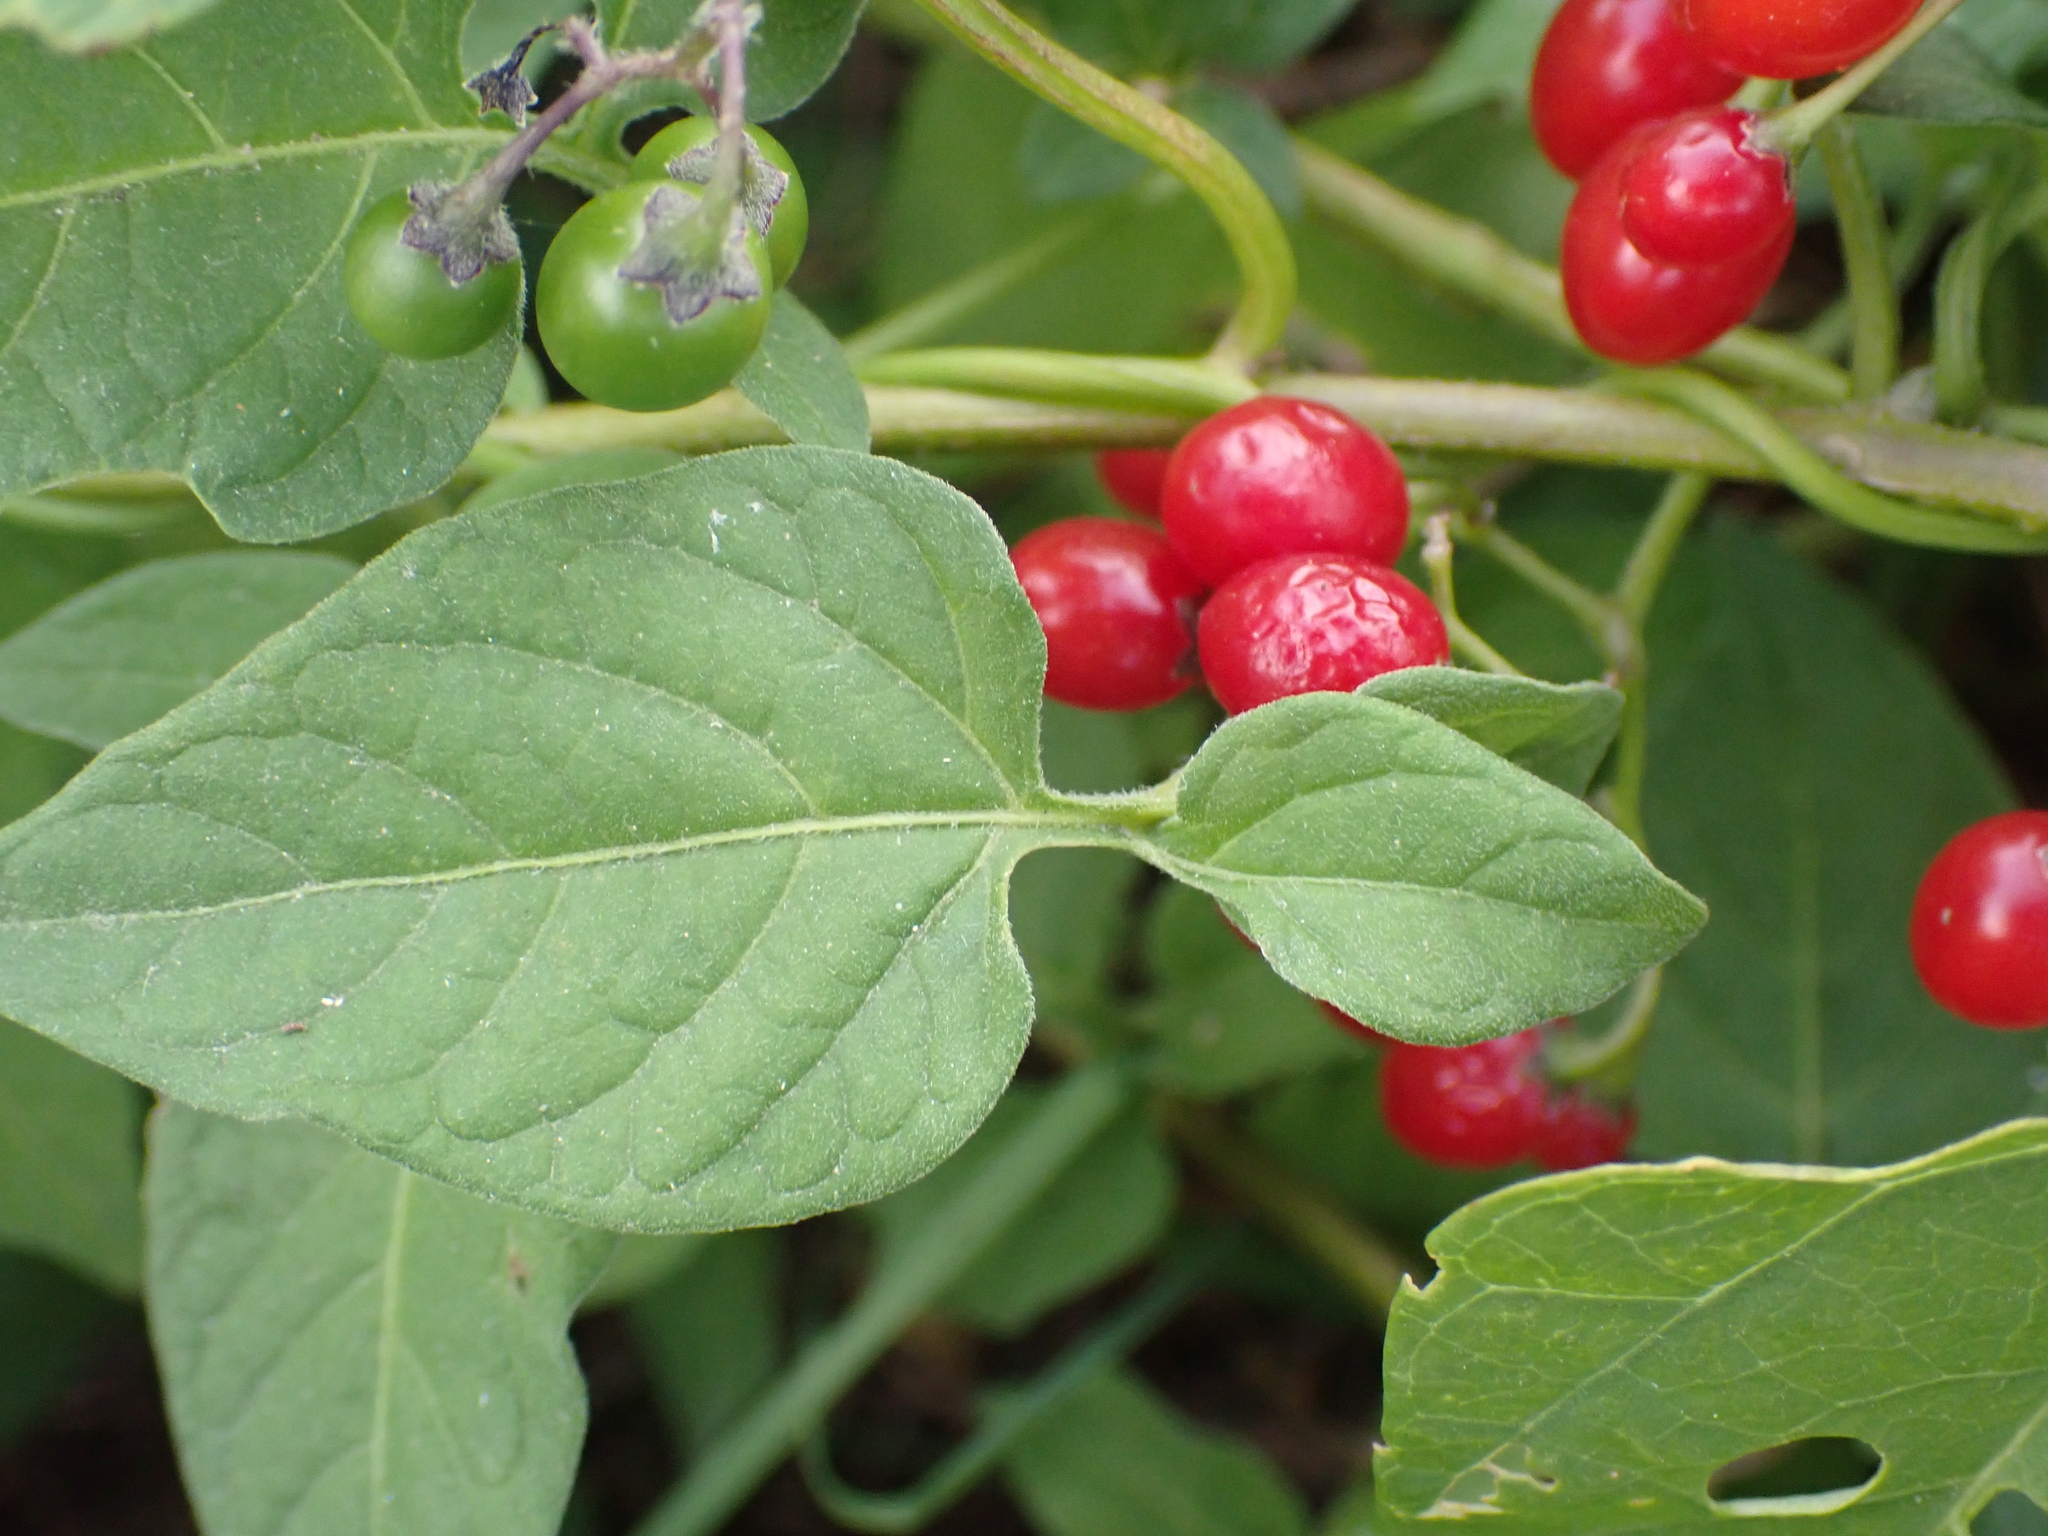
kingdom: Plantae
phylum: Tracheophyta
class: Magnoliopsida
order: Solanales
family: Solanaceae
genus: Solanum
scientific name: Solanum dulcamara
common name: Climbing nightshade
